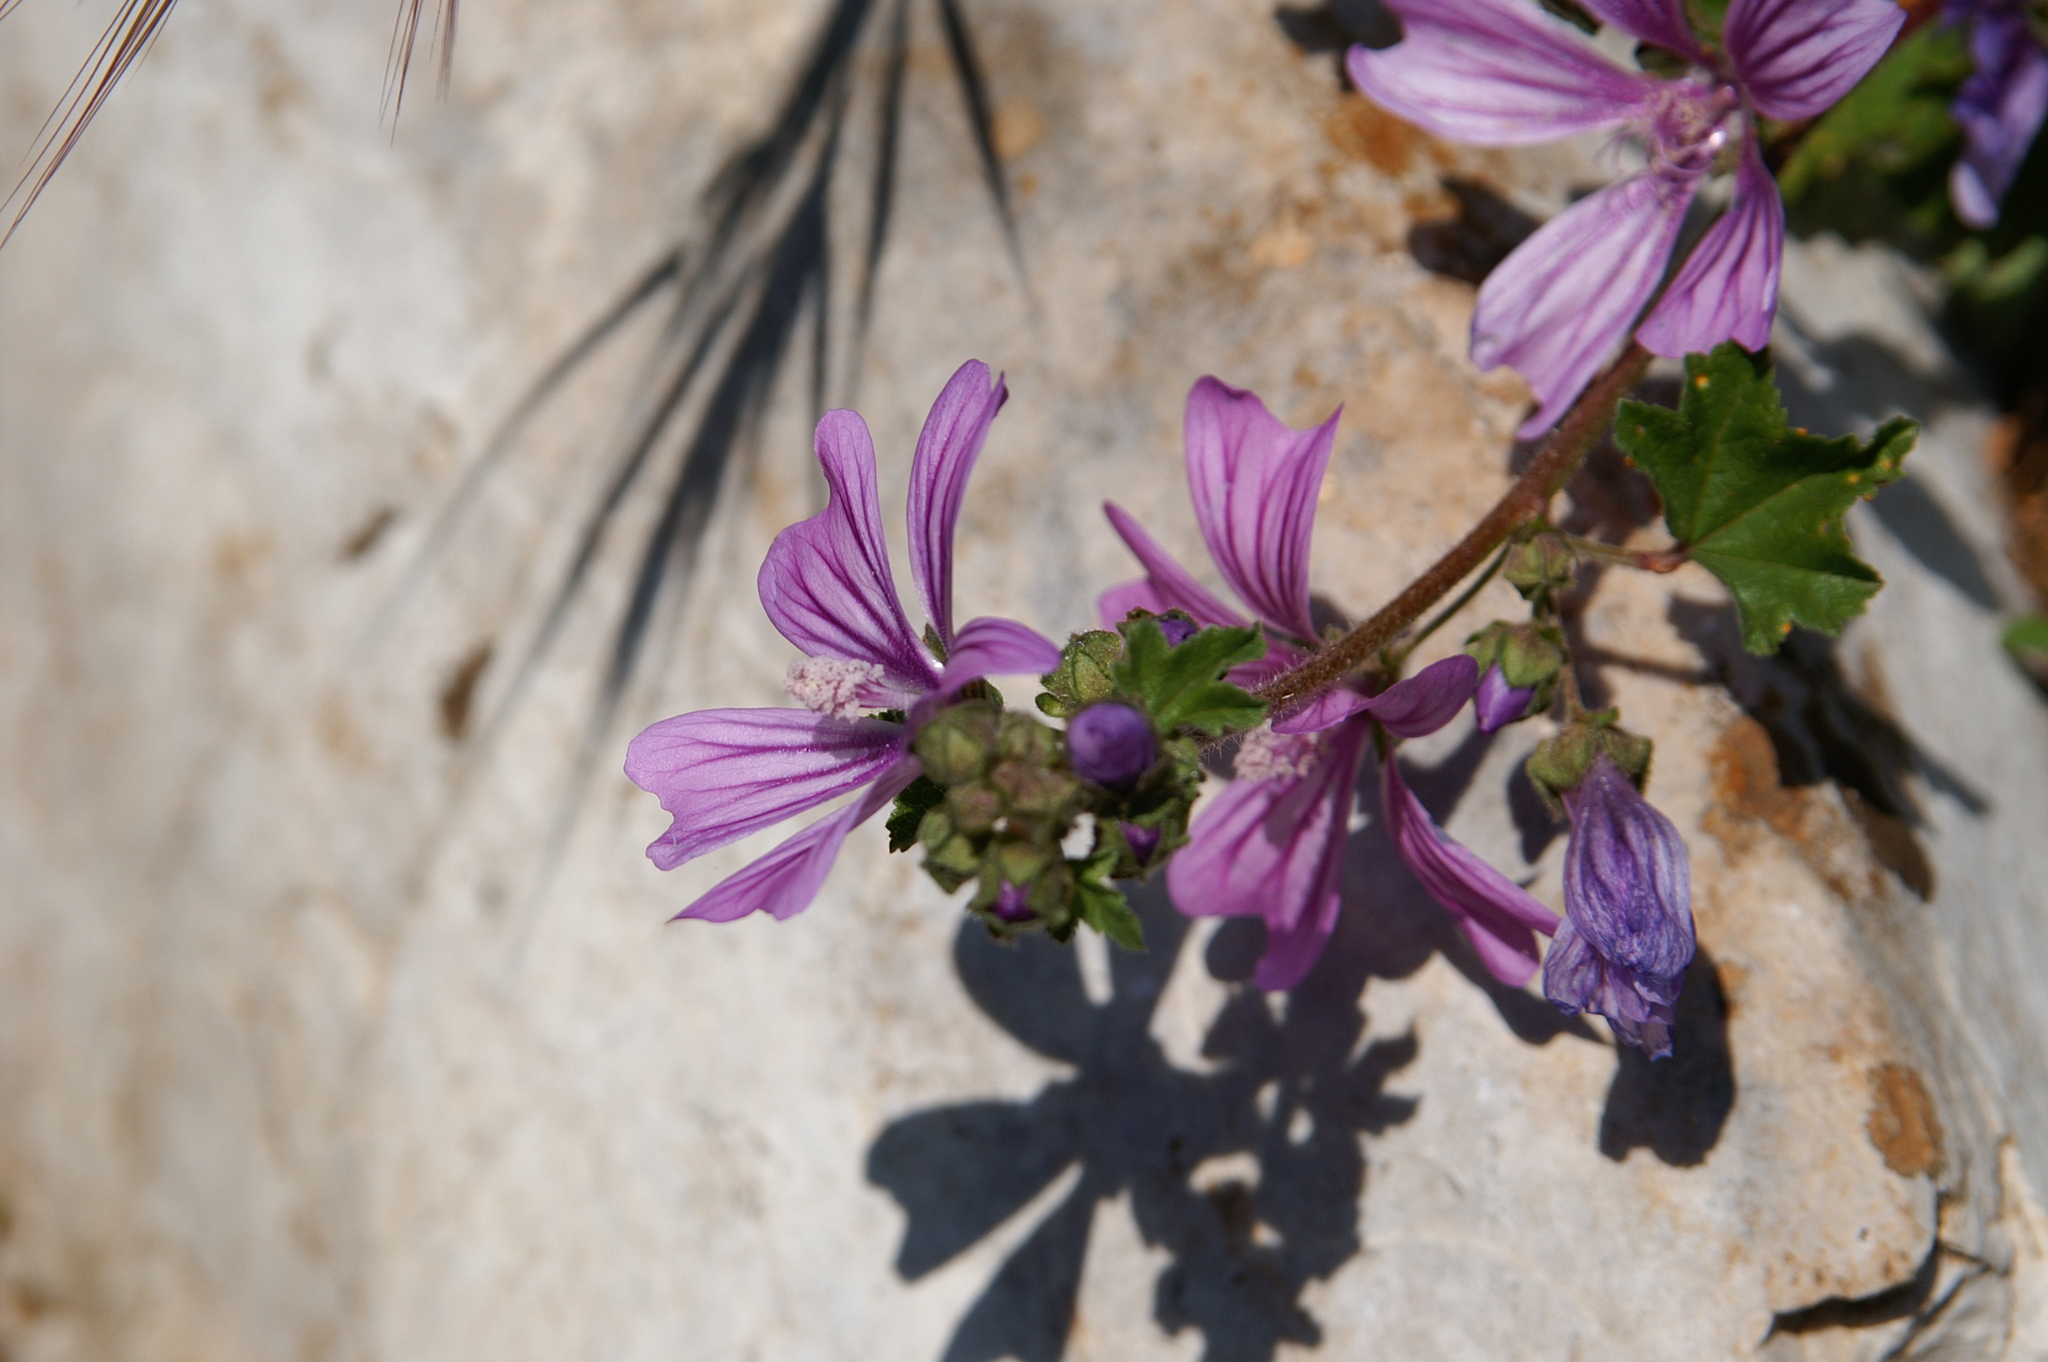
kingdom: Plantae
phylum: Tracheophyta
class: Magnoliopsida
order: Malvales
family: Malvaceae
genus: Malva
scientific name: Malva sylvestris
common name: Common mallow
